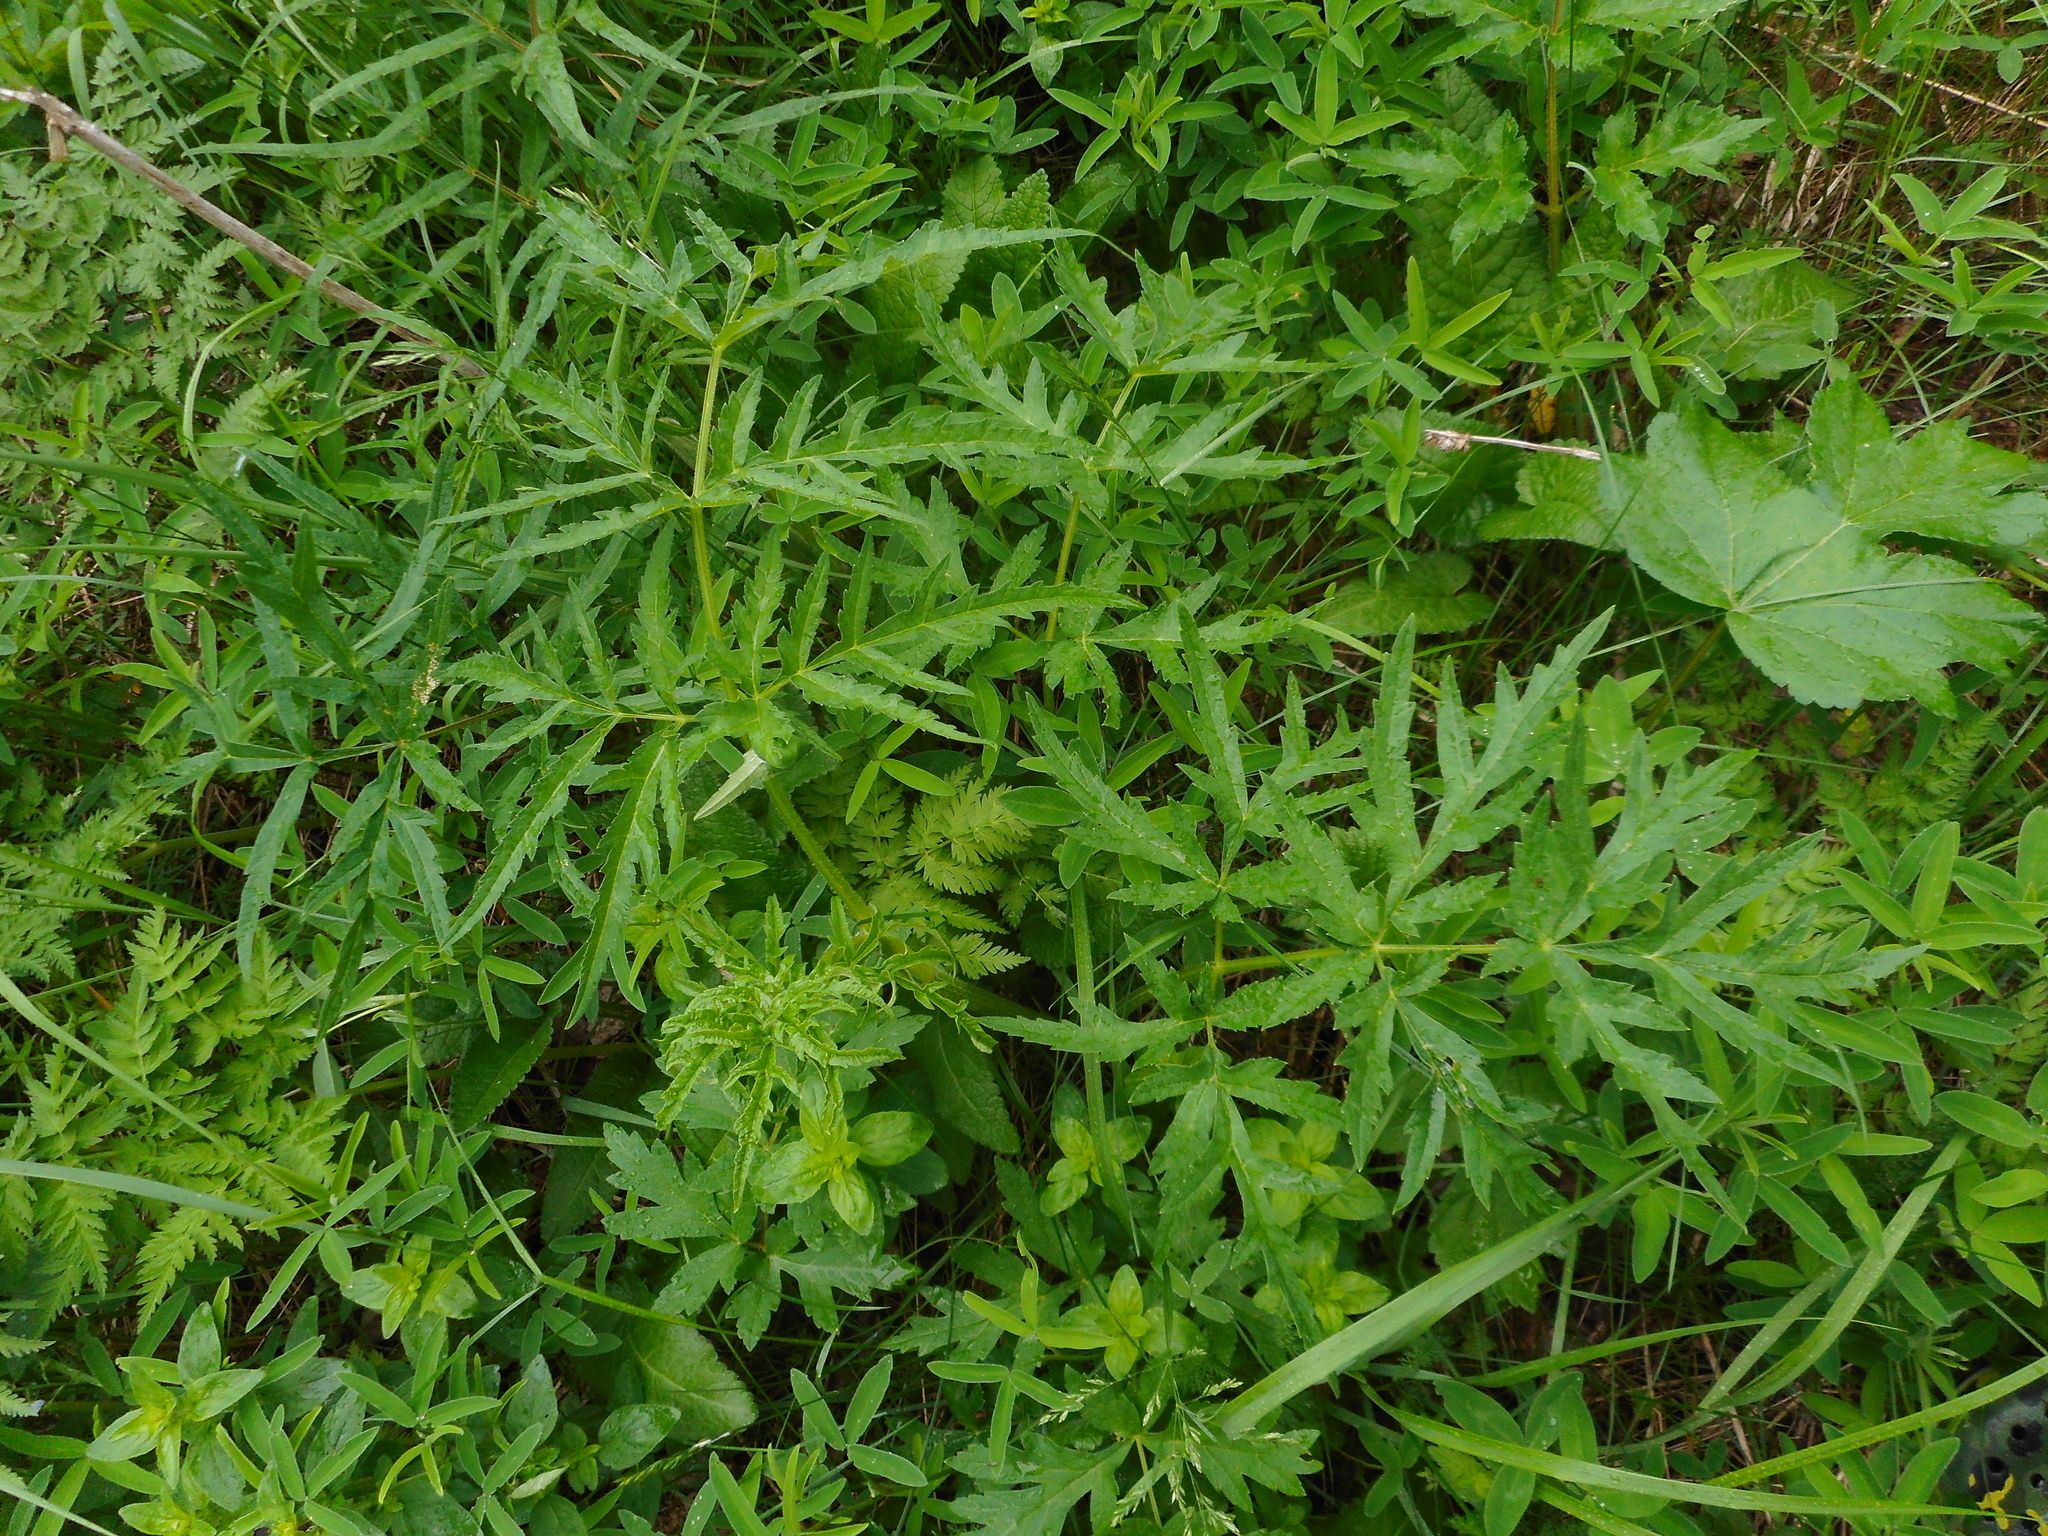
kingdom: Plantae
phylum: Tracheophyta
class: Magnoliopsida
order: Apiales
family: Apiaceae
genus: Heracleum
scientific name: Heracleum sphondylium
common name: Hogweed
